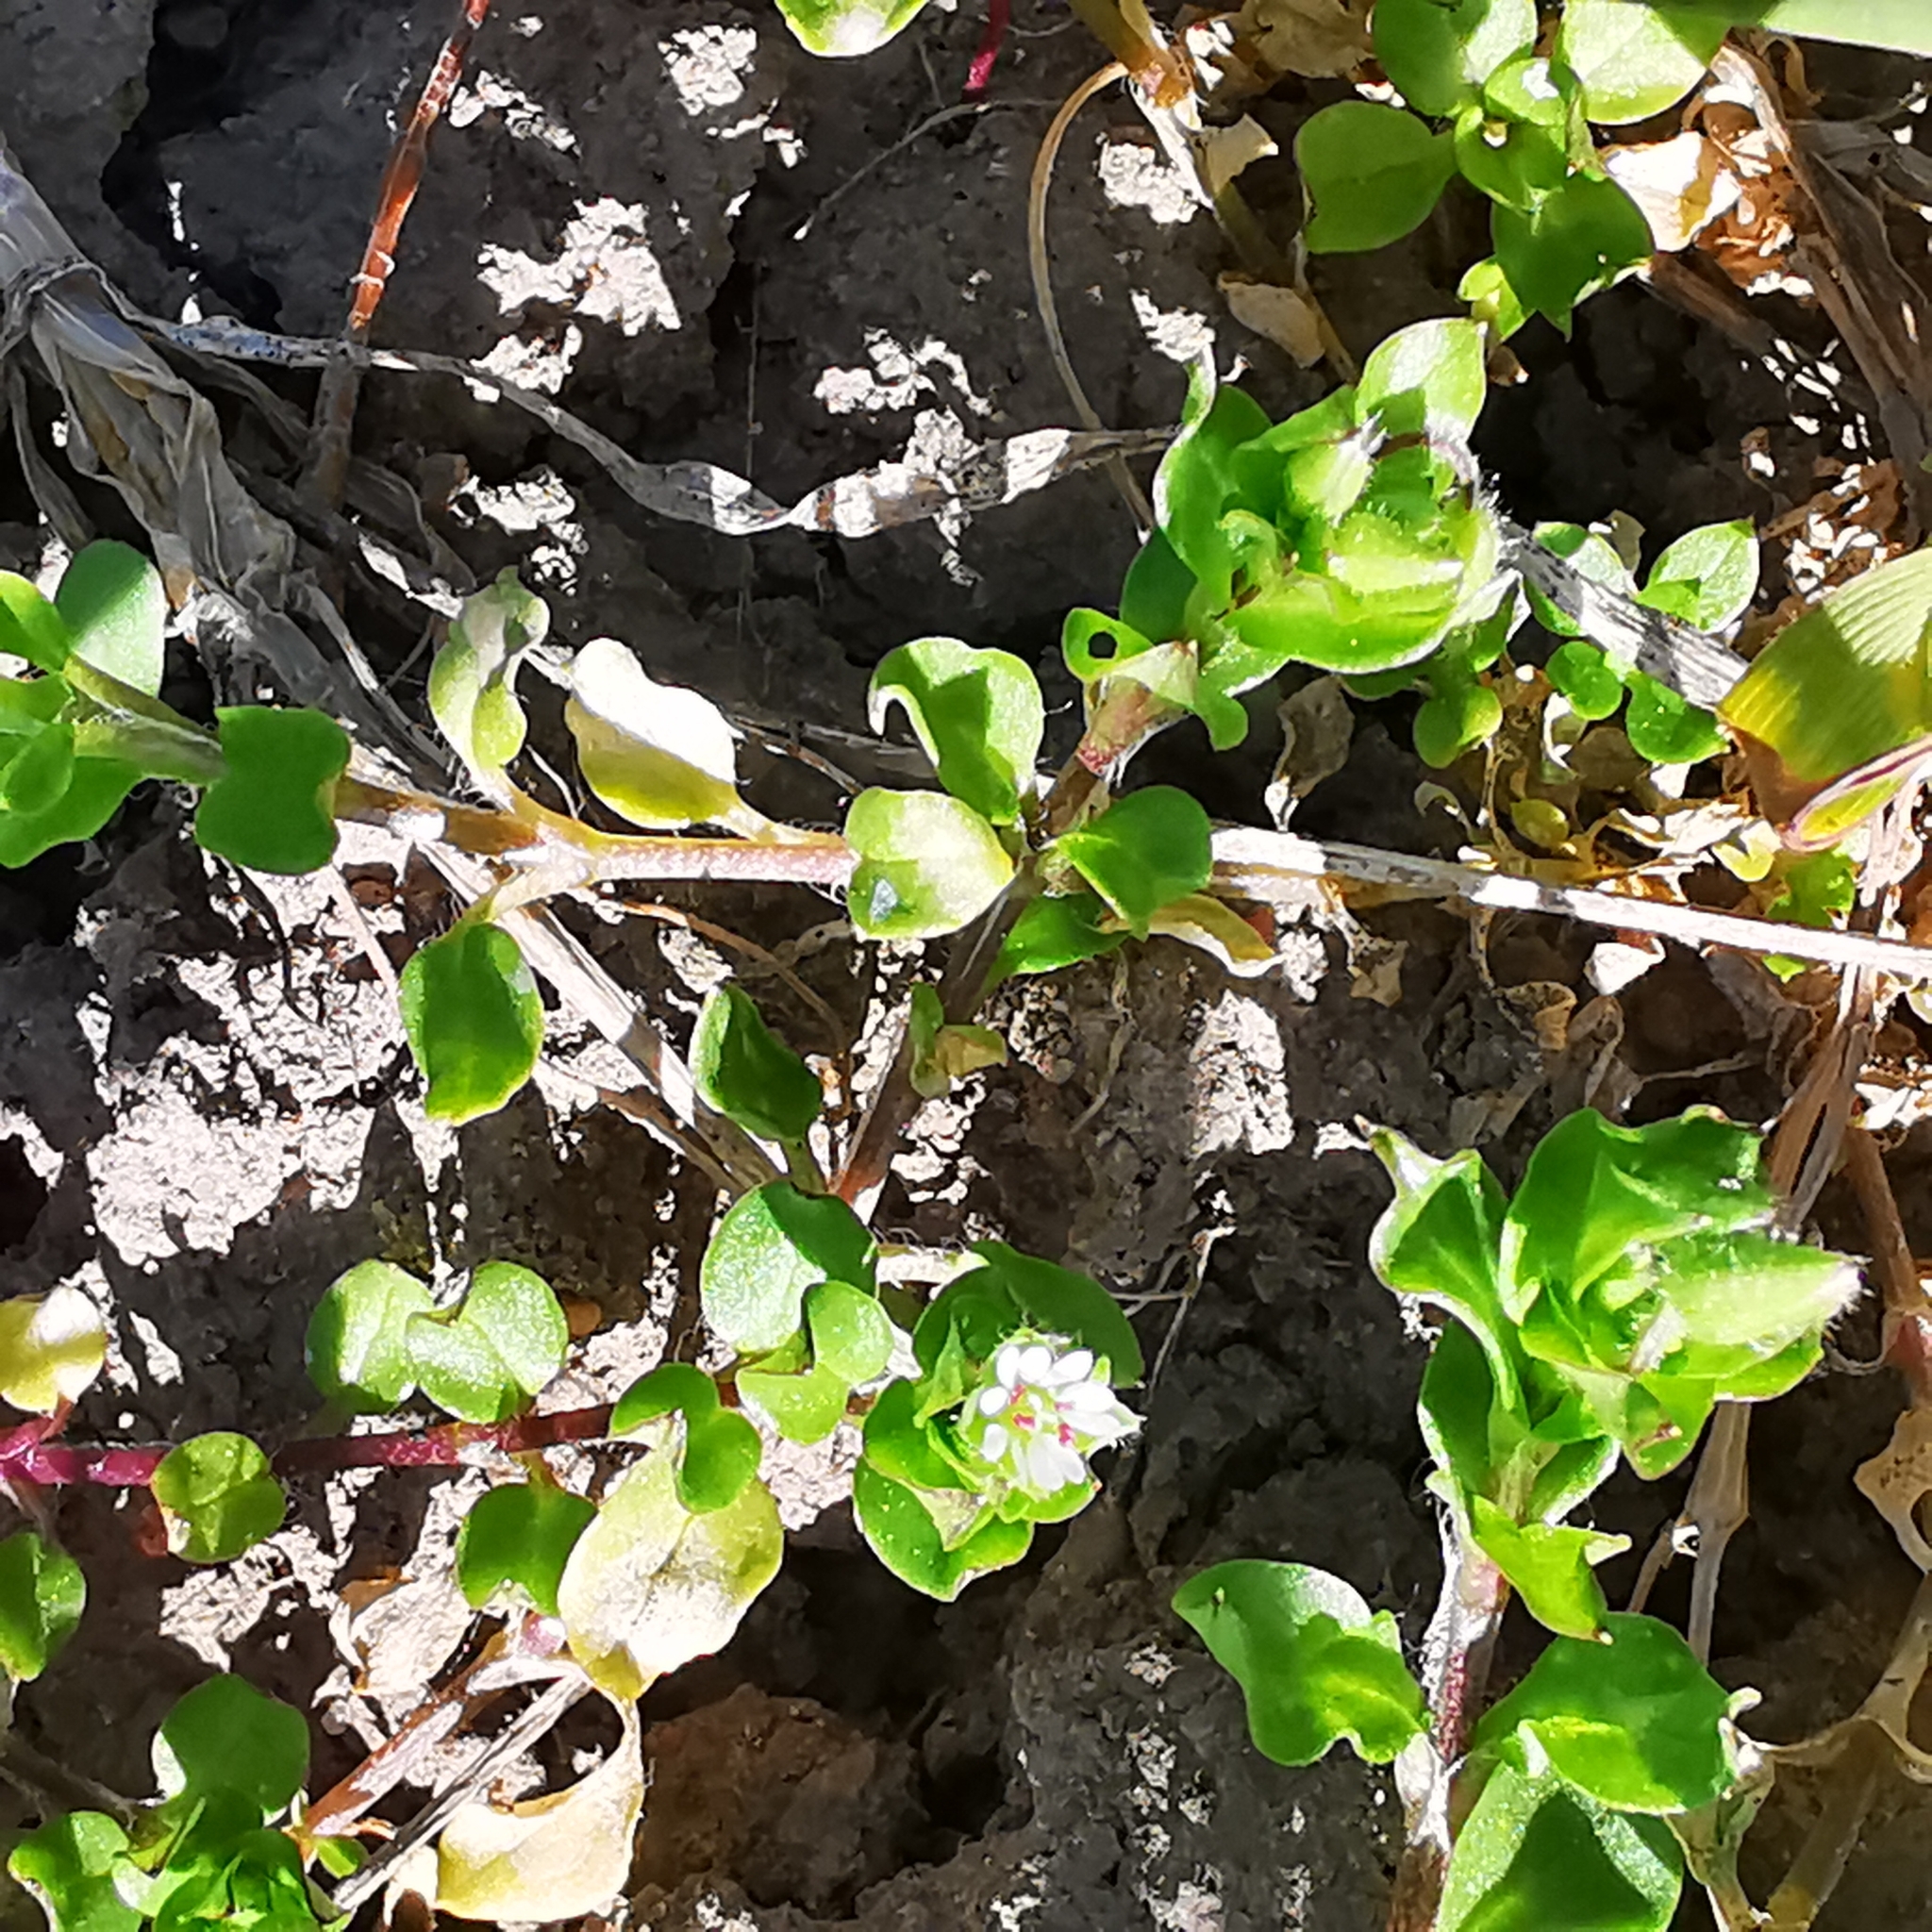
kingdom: Plantae
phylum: Tracheophyta
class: Magnoliopsida
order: Caryophyllales
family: Caryophyllaceae
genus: Stellaria
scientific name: Stellaria media
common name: Common chickweed
